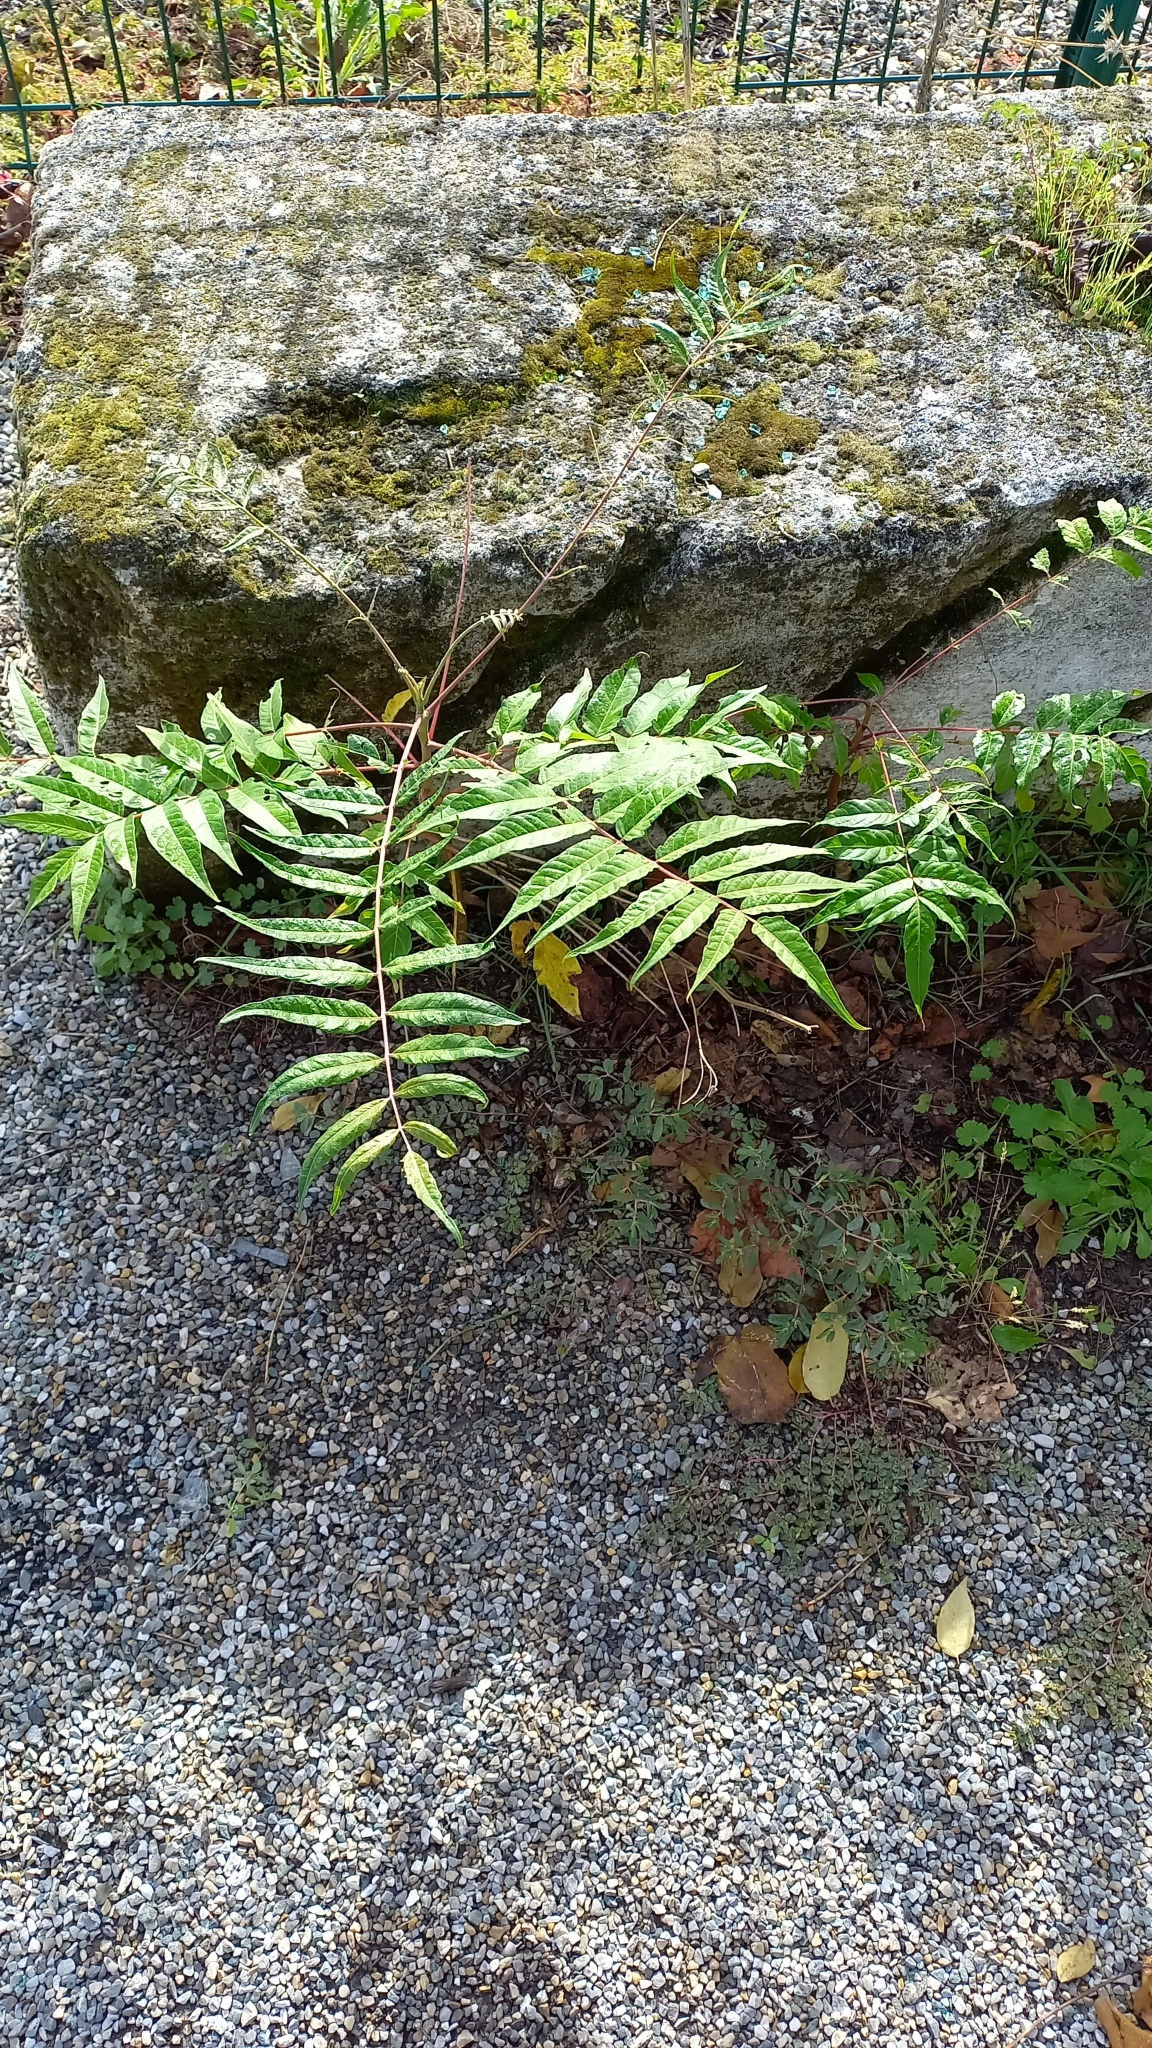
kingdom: Plantae
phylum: Tracheophyta
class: Magnoliopsida
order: Sapindales
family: Simaroubaceae
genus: Ailanthus
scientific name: Ailanthus altissima
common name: Tree-of-heaven
